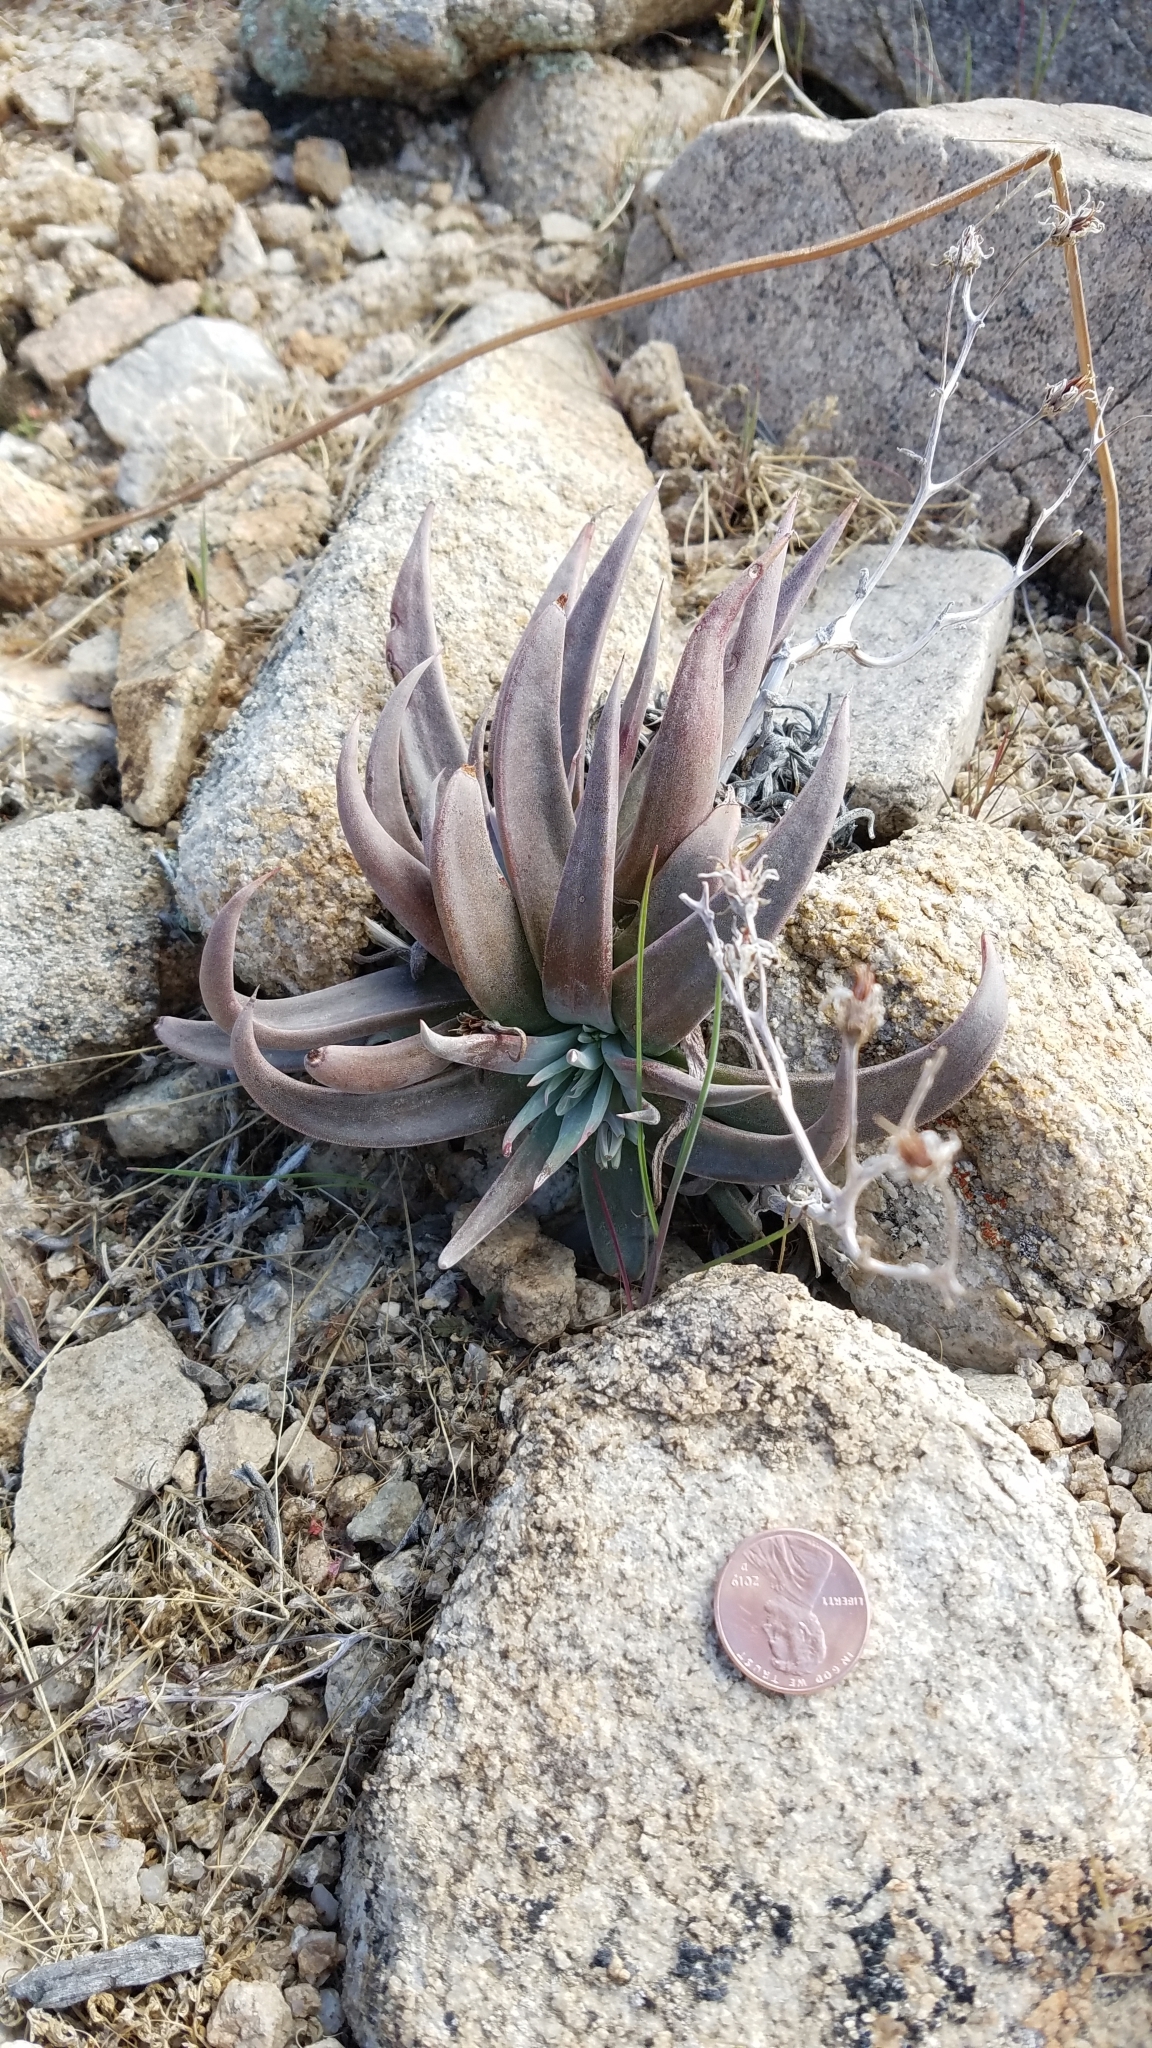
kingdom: Plantae
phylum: Tracheophyta
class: Magnoliopsida
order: Saxifragales
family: Crassulaceae
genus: Dudleya
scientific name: Dudleya saxosa
